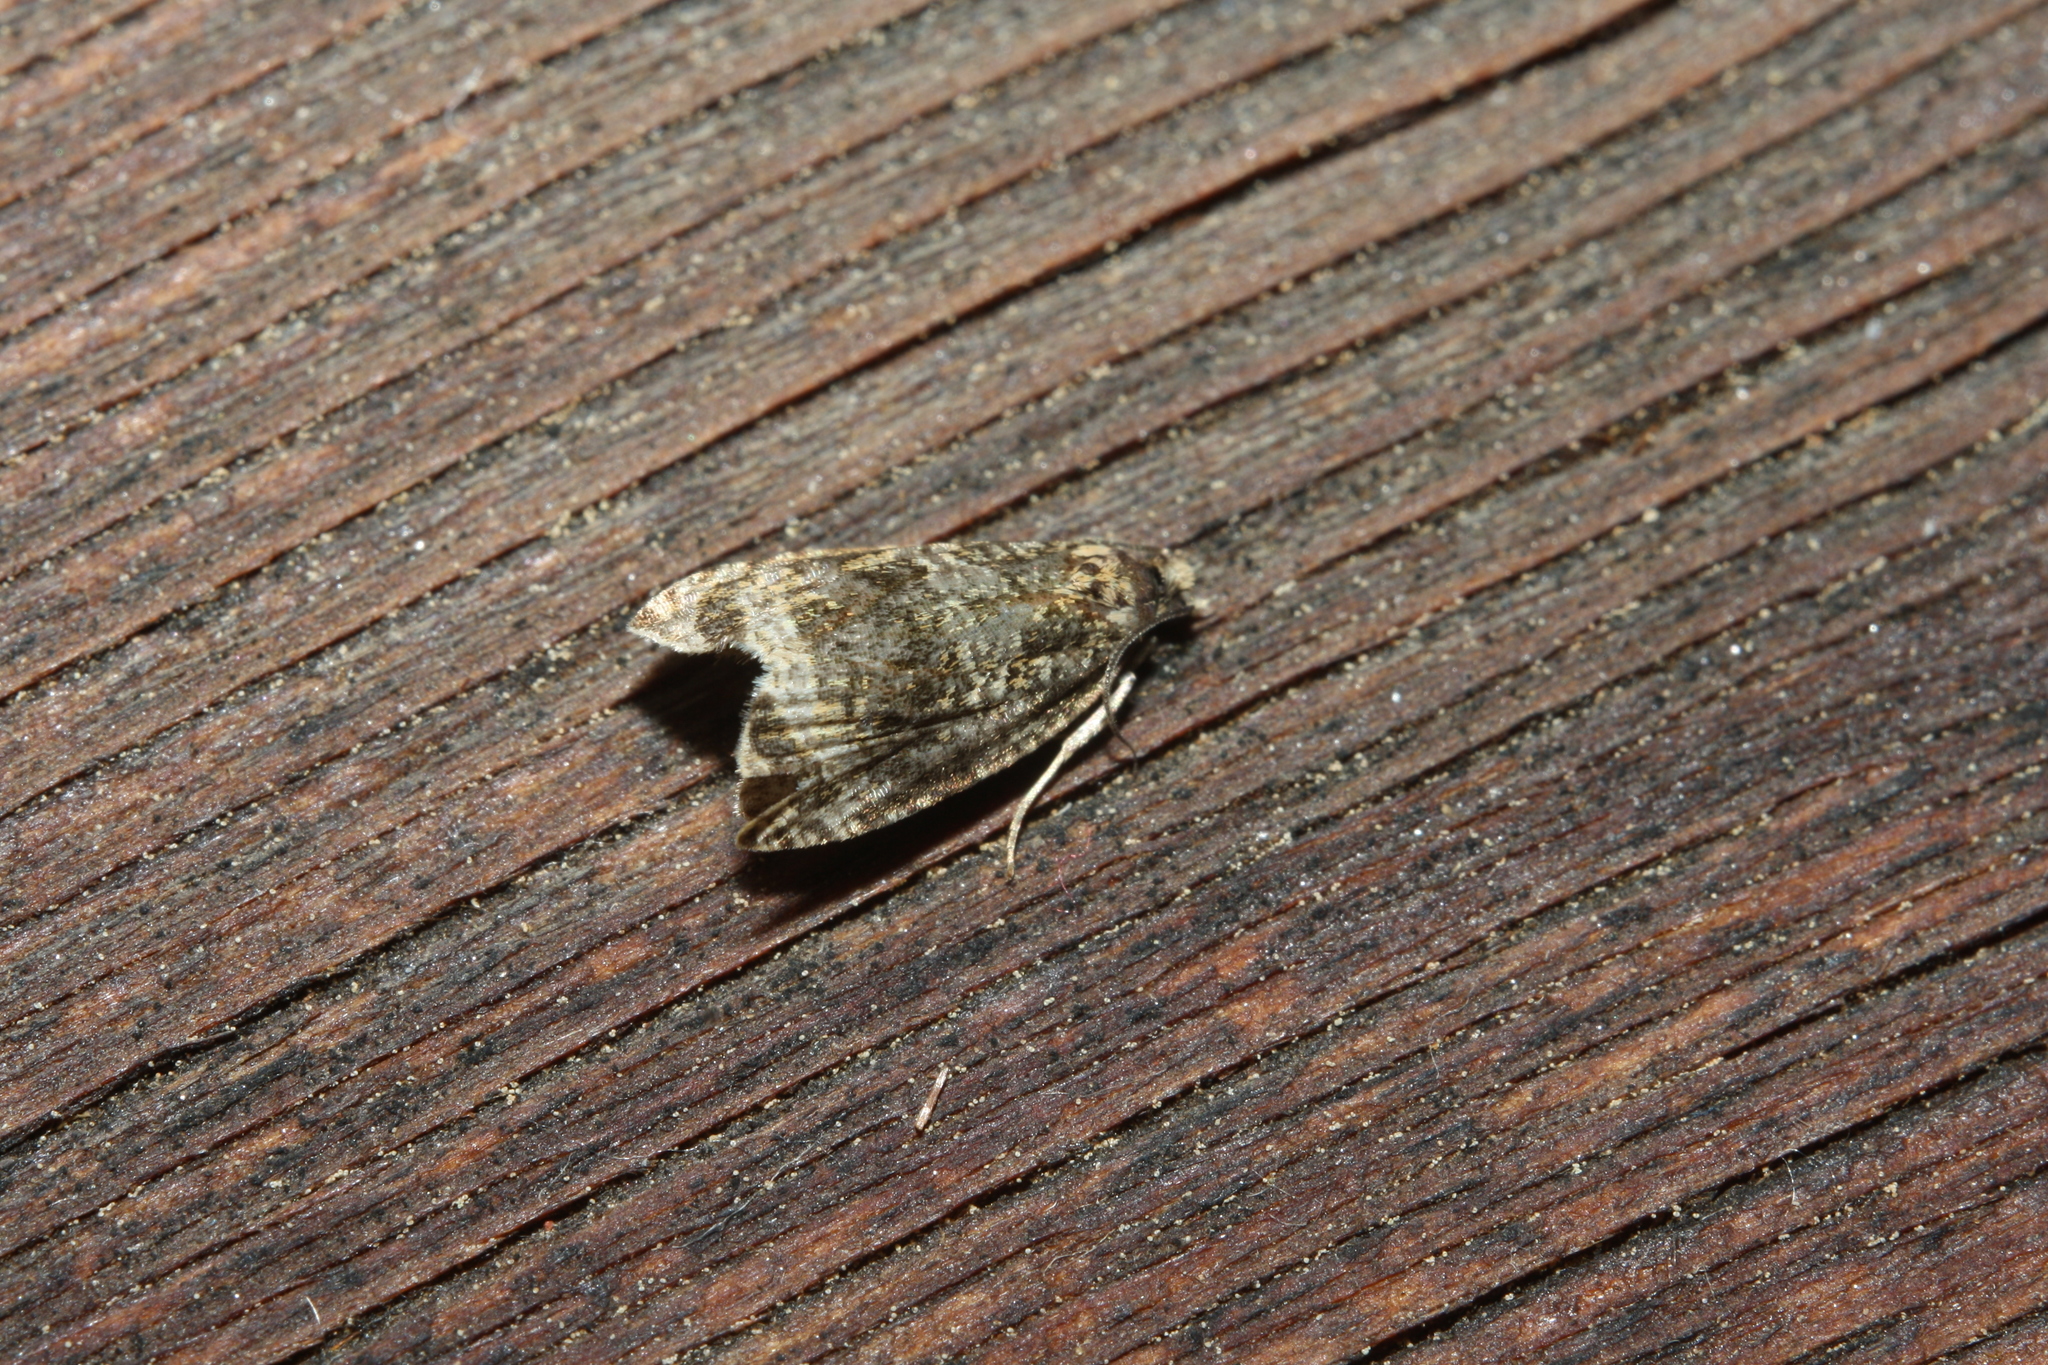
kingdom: Animalia
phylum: Arthropoda
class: Insecta
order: Lepidoptera
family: Tortricidae
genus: Syricoris
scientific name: Syricoris lacunana
